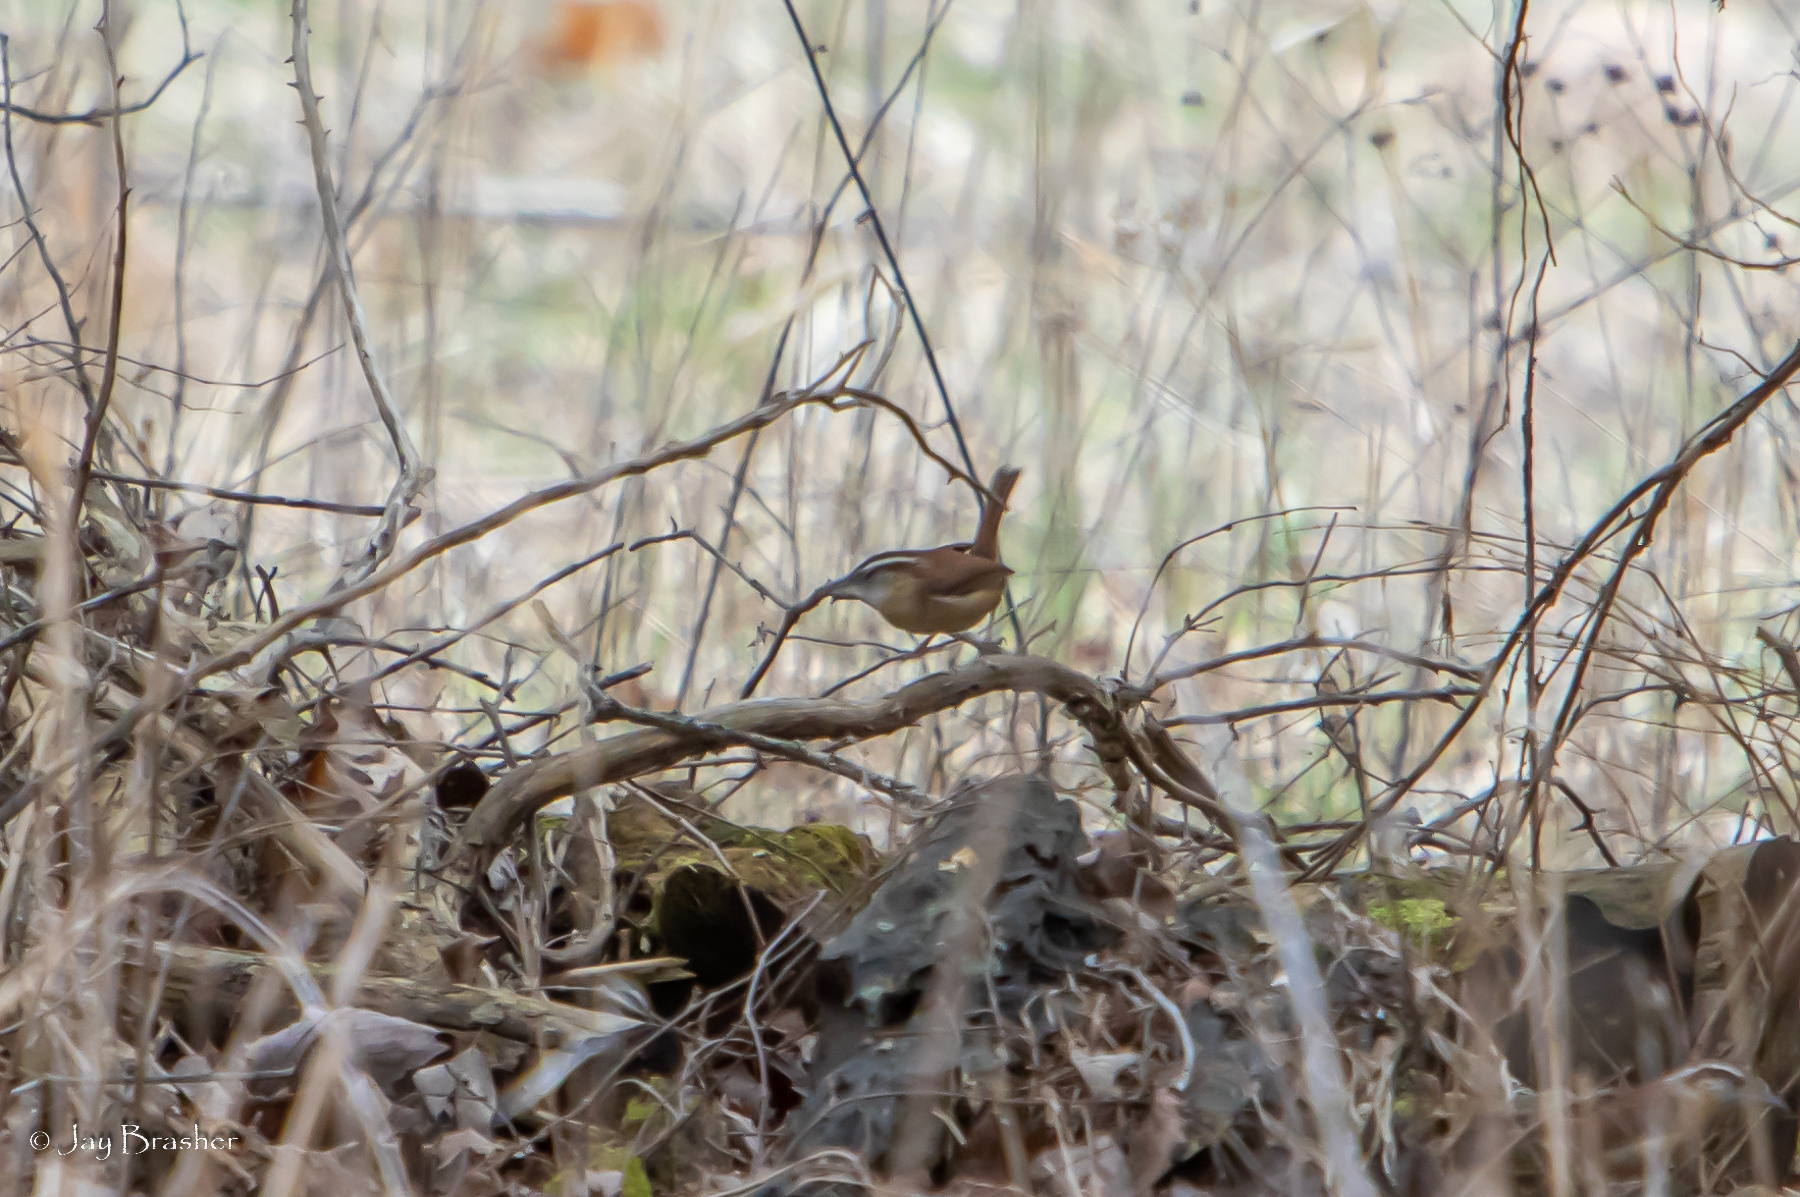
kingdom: Animalia
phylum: Chordata
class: Aves
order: Passeriformes
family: Troglodytidae
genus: Thryothorus
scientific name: Thryothorus ludovicianus
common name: Carolina wren
